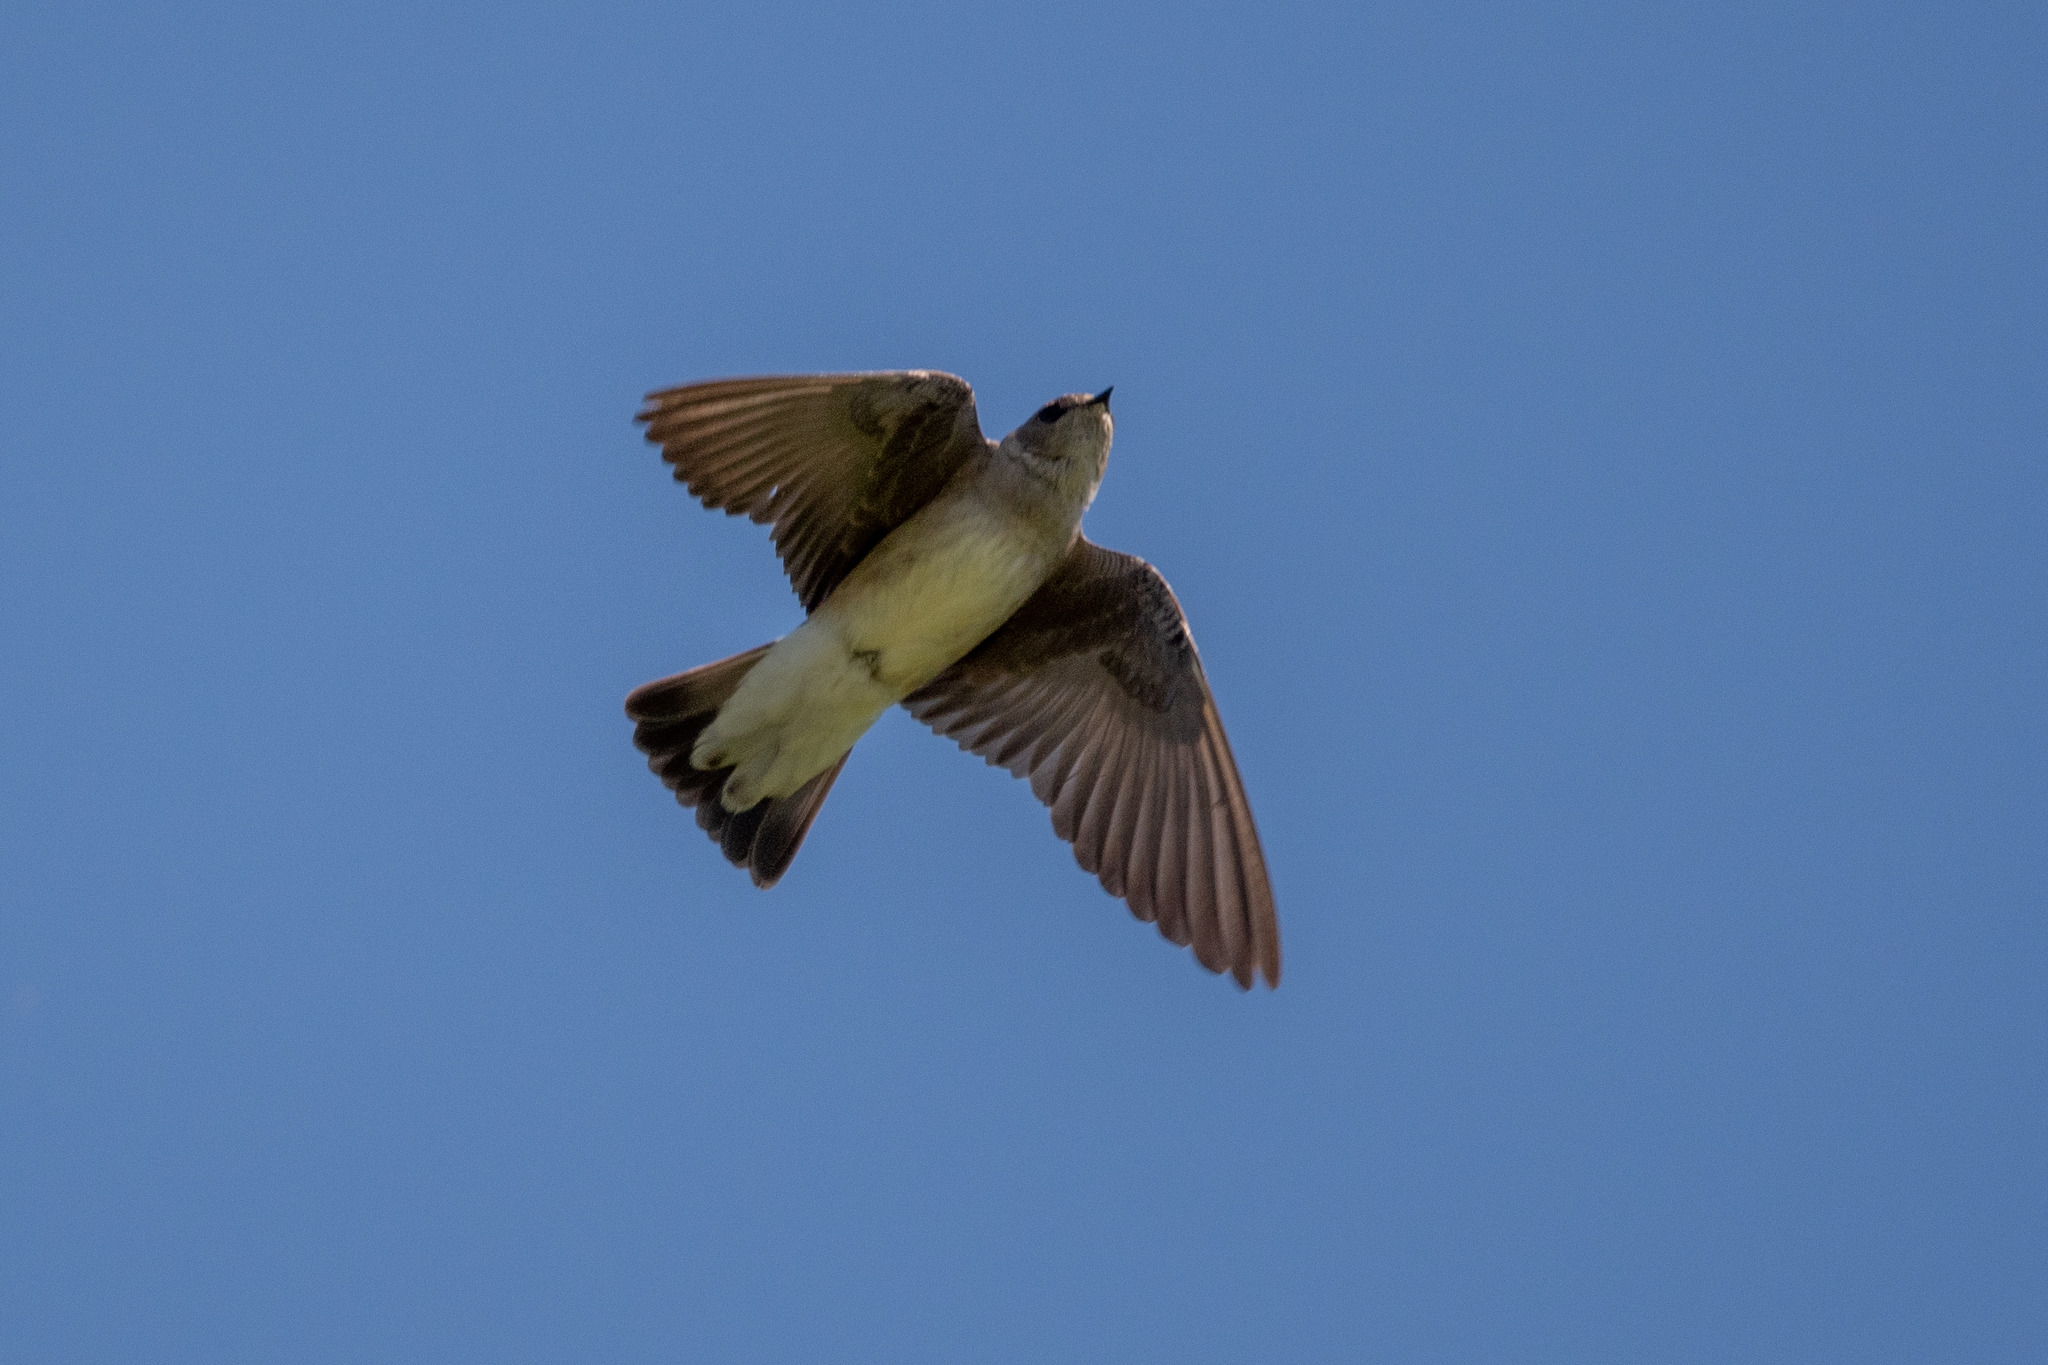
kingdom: Animalia
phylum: Chordata
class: Aves
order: Passeriformes
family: Hirundinidae
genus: Stelgidopteryx
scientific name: Stelgidopteryx serripennis
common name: Northern rough-winged swallow
